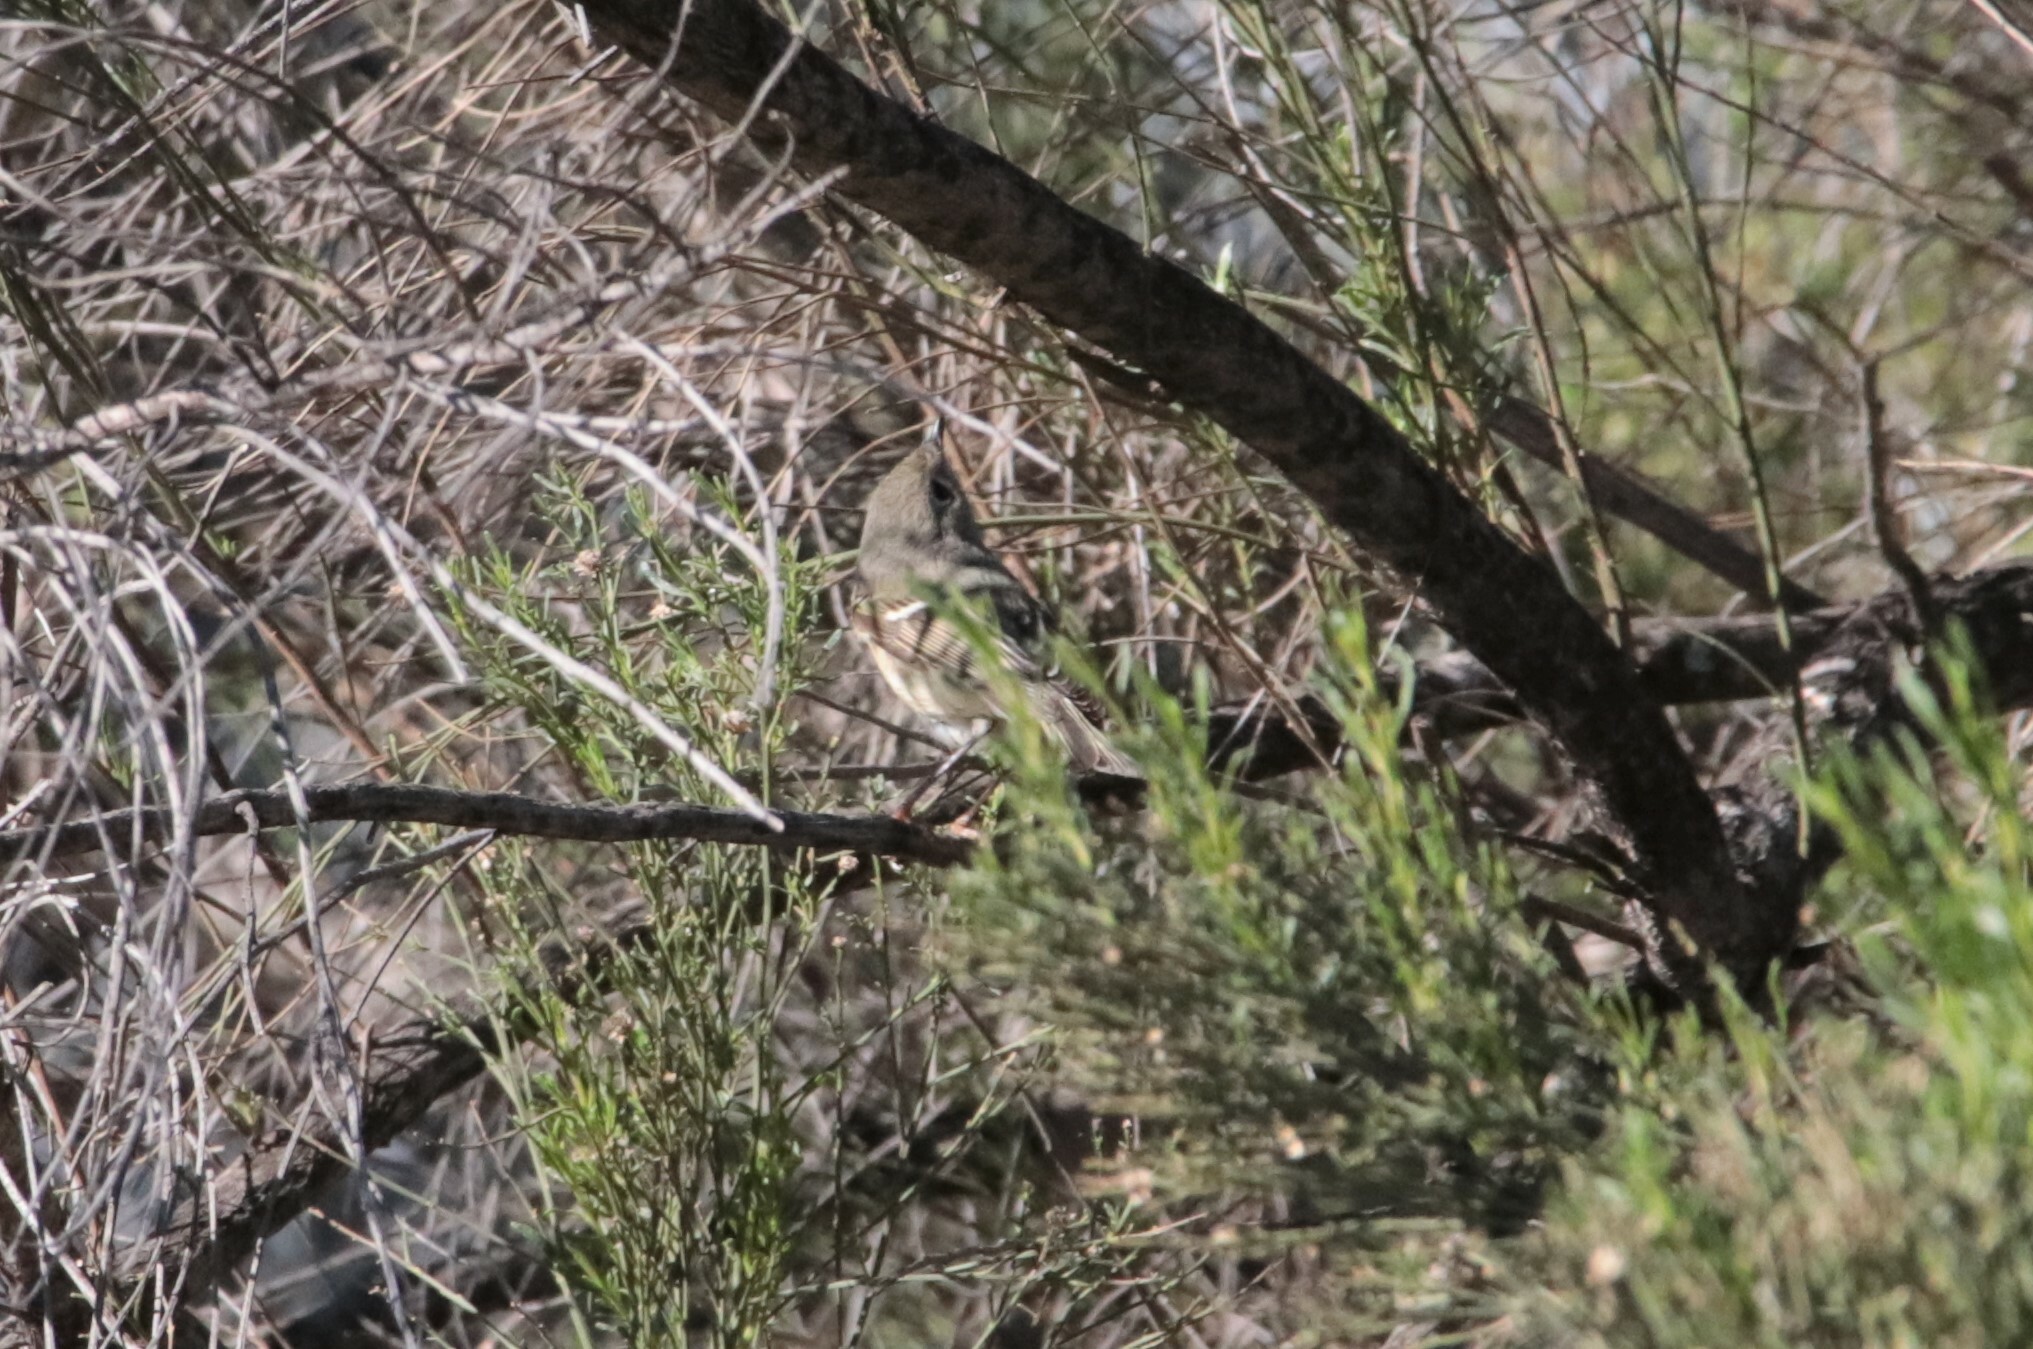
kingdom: Animalia
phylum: Chordata
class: Aves
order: Passeriformes
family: Regulidae
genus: Regulus
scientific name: Regulus calendula
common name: Ruby-crowned kinglet
